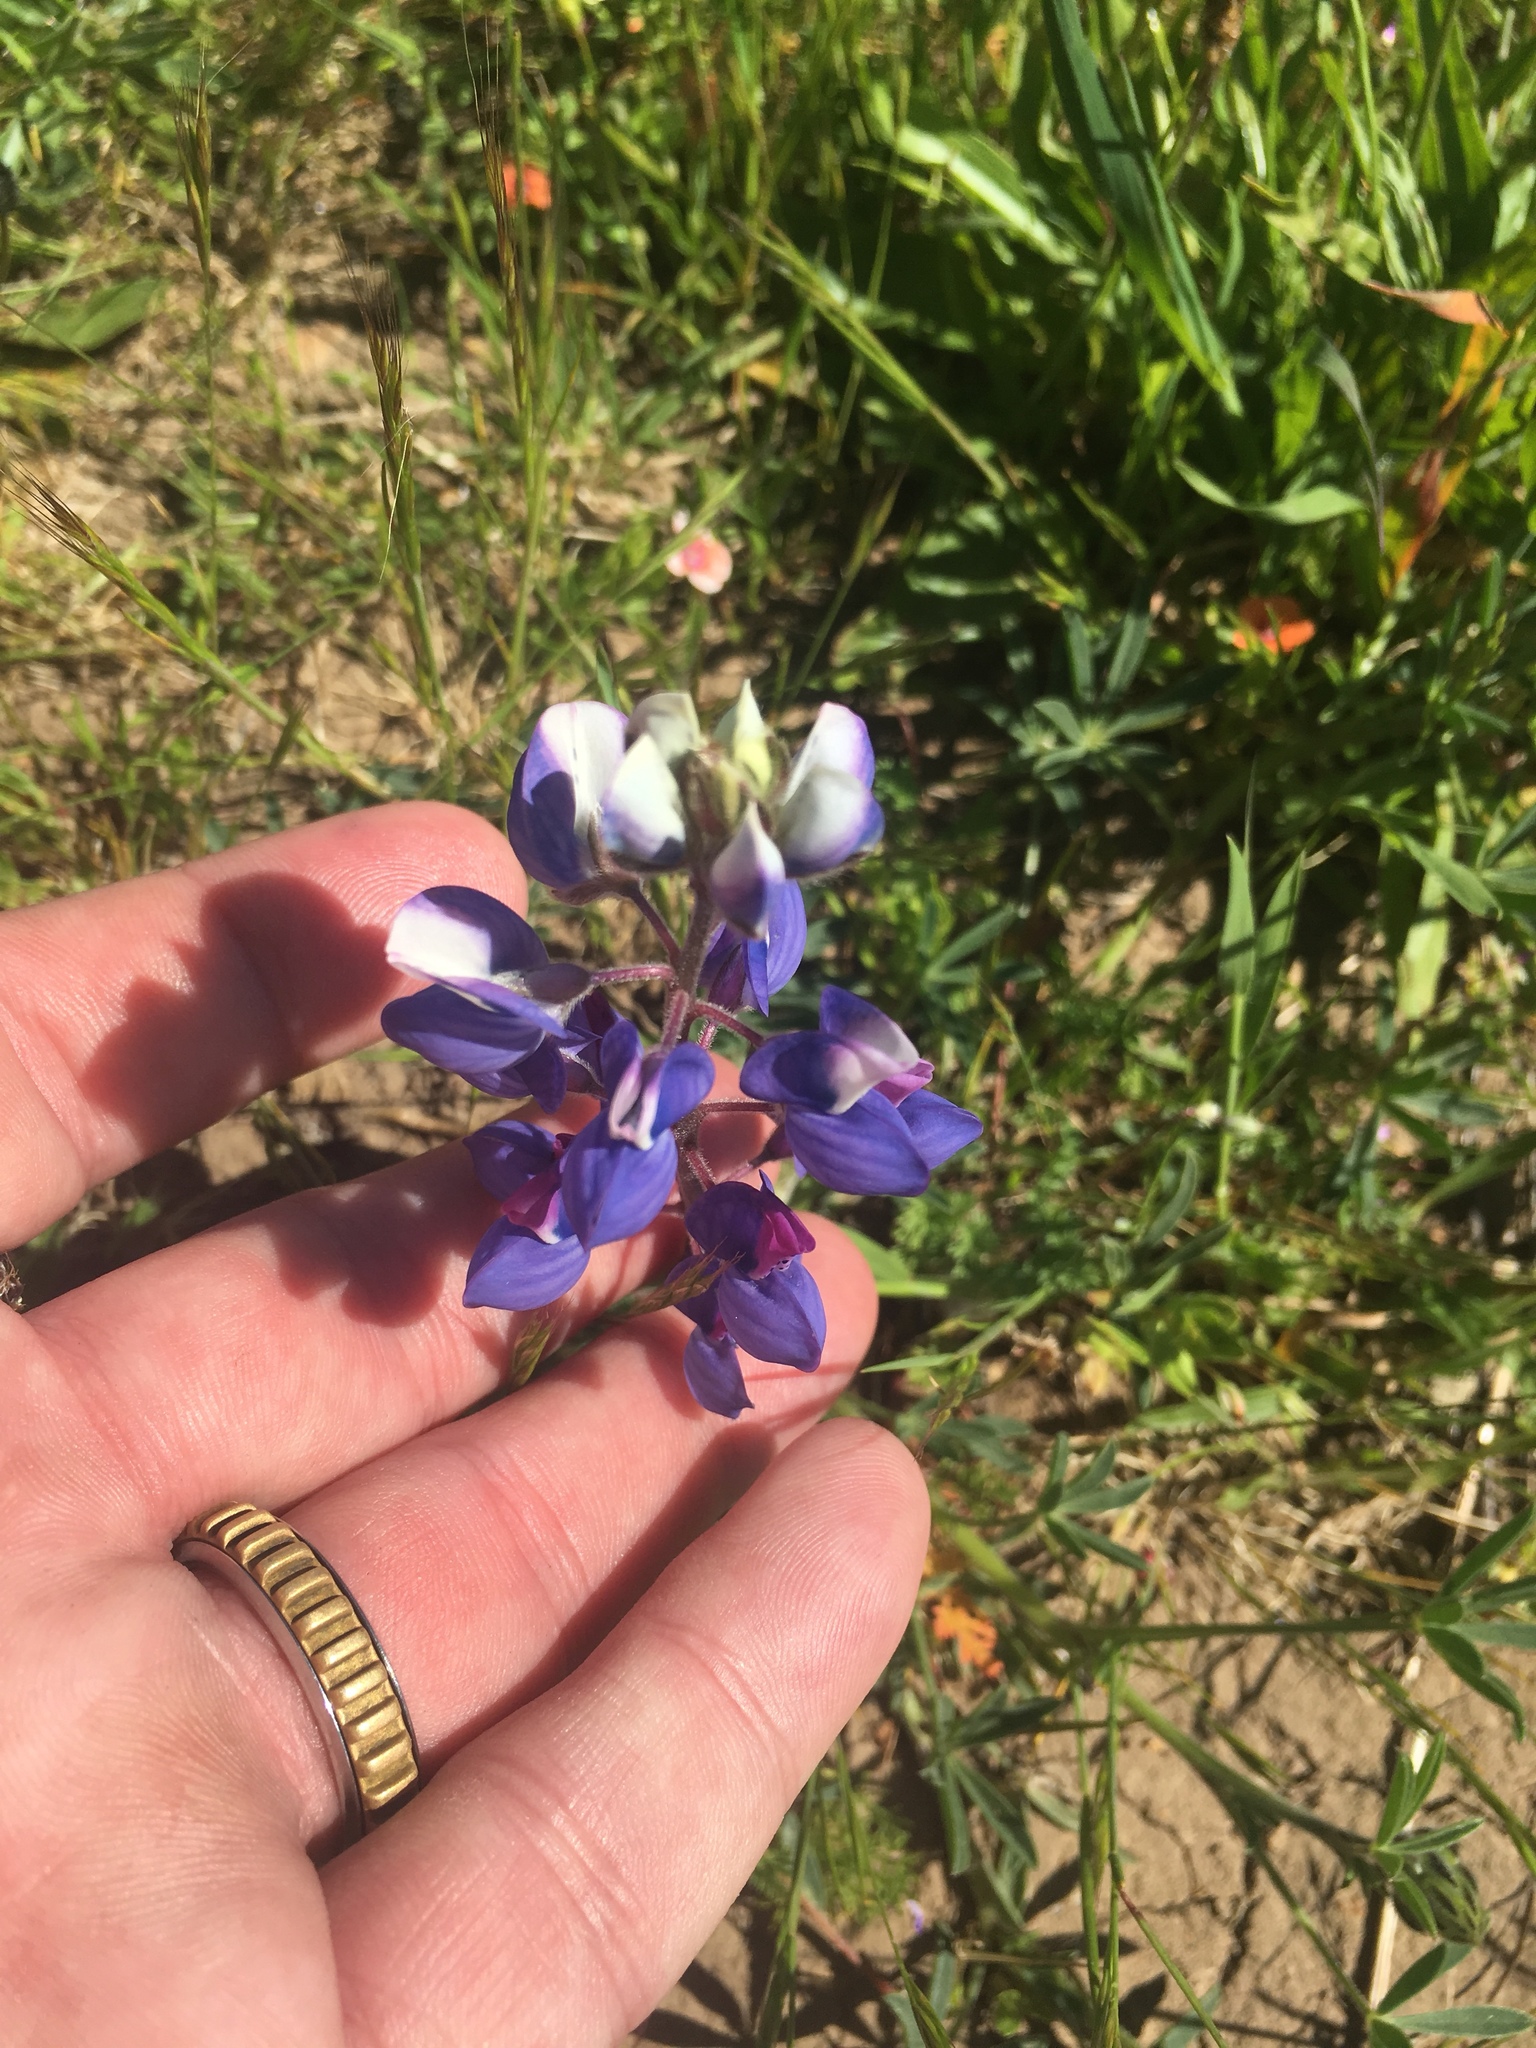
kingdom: Plantae
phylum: Tracheophyta
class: Magnoliopsida
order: Fabales
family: Fabaceae
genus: Lupinus
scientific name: Lupinus nanus
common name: Orean blue lupin
